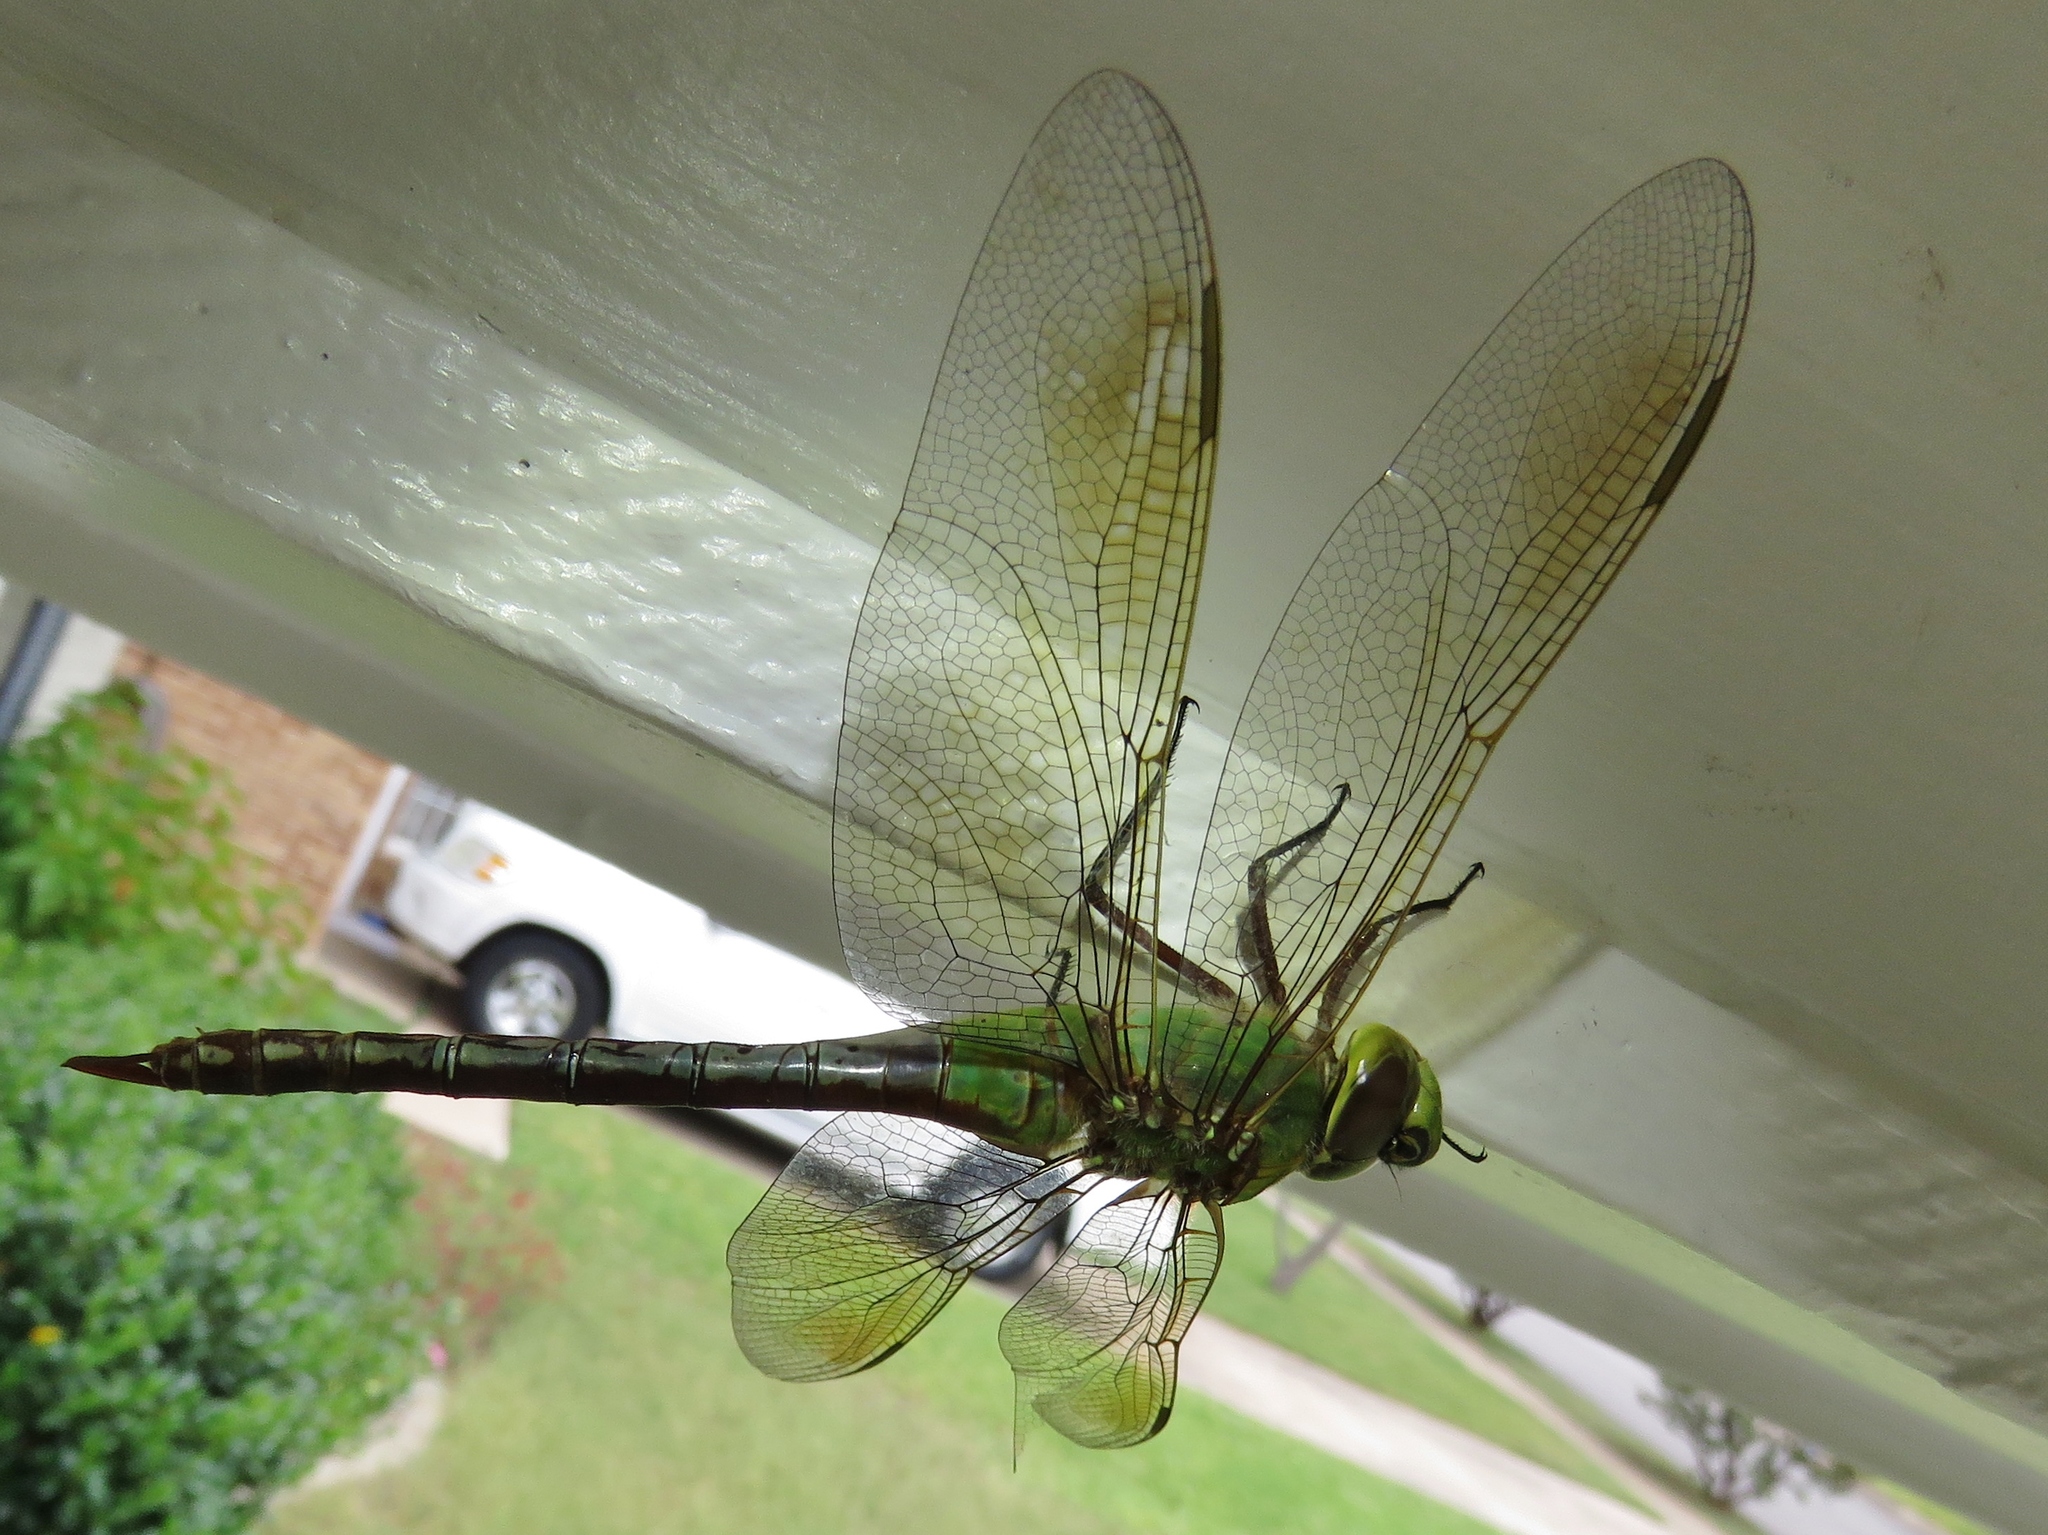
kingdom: Animalia
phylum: Arthropoda
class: Insecta
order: Odonata
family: Aeshnidae
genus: Anax
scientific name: Anax junius
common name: Common green darner
